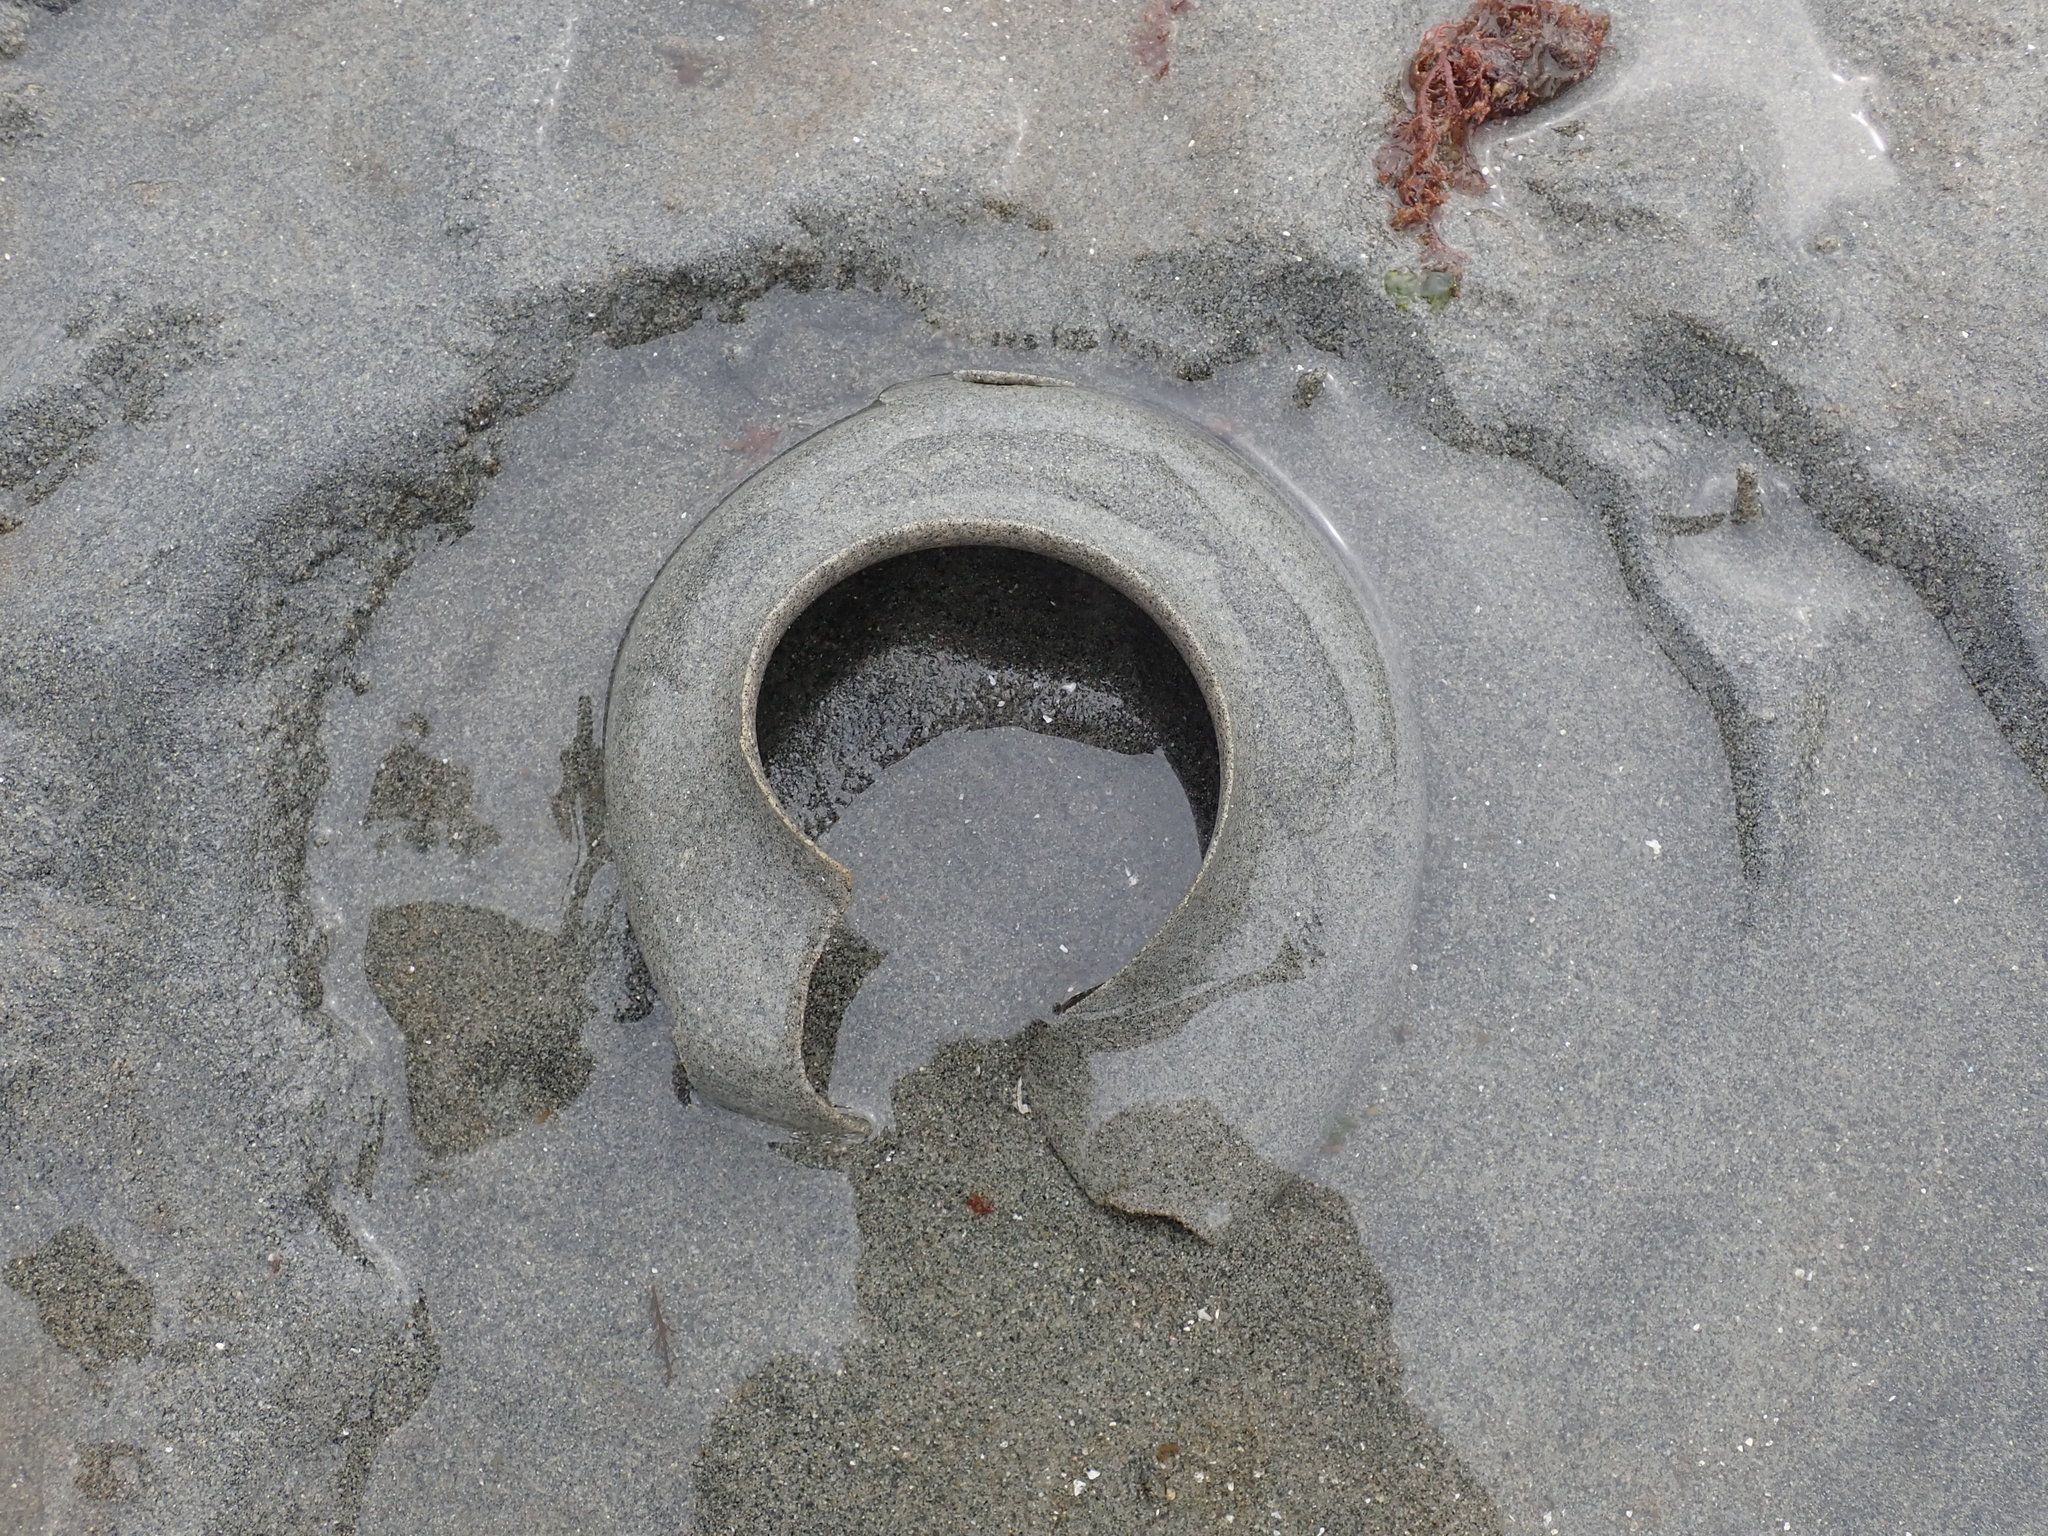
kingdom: Animalia
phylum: Mollusca
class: Gastropoda
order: Littorinimorpha
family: Naticidae
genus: Neverita
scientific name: Neverita lewisii
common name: Lewis' moonsnail
